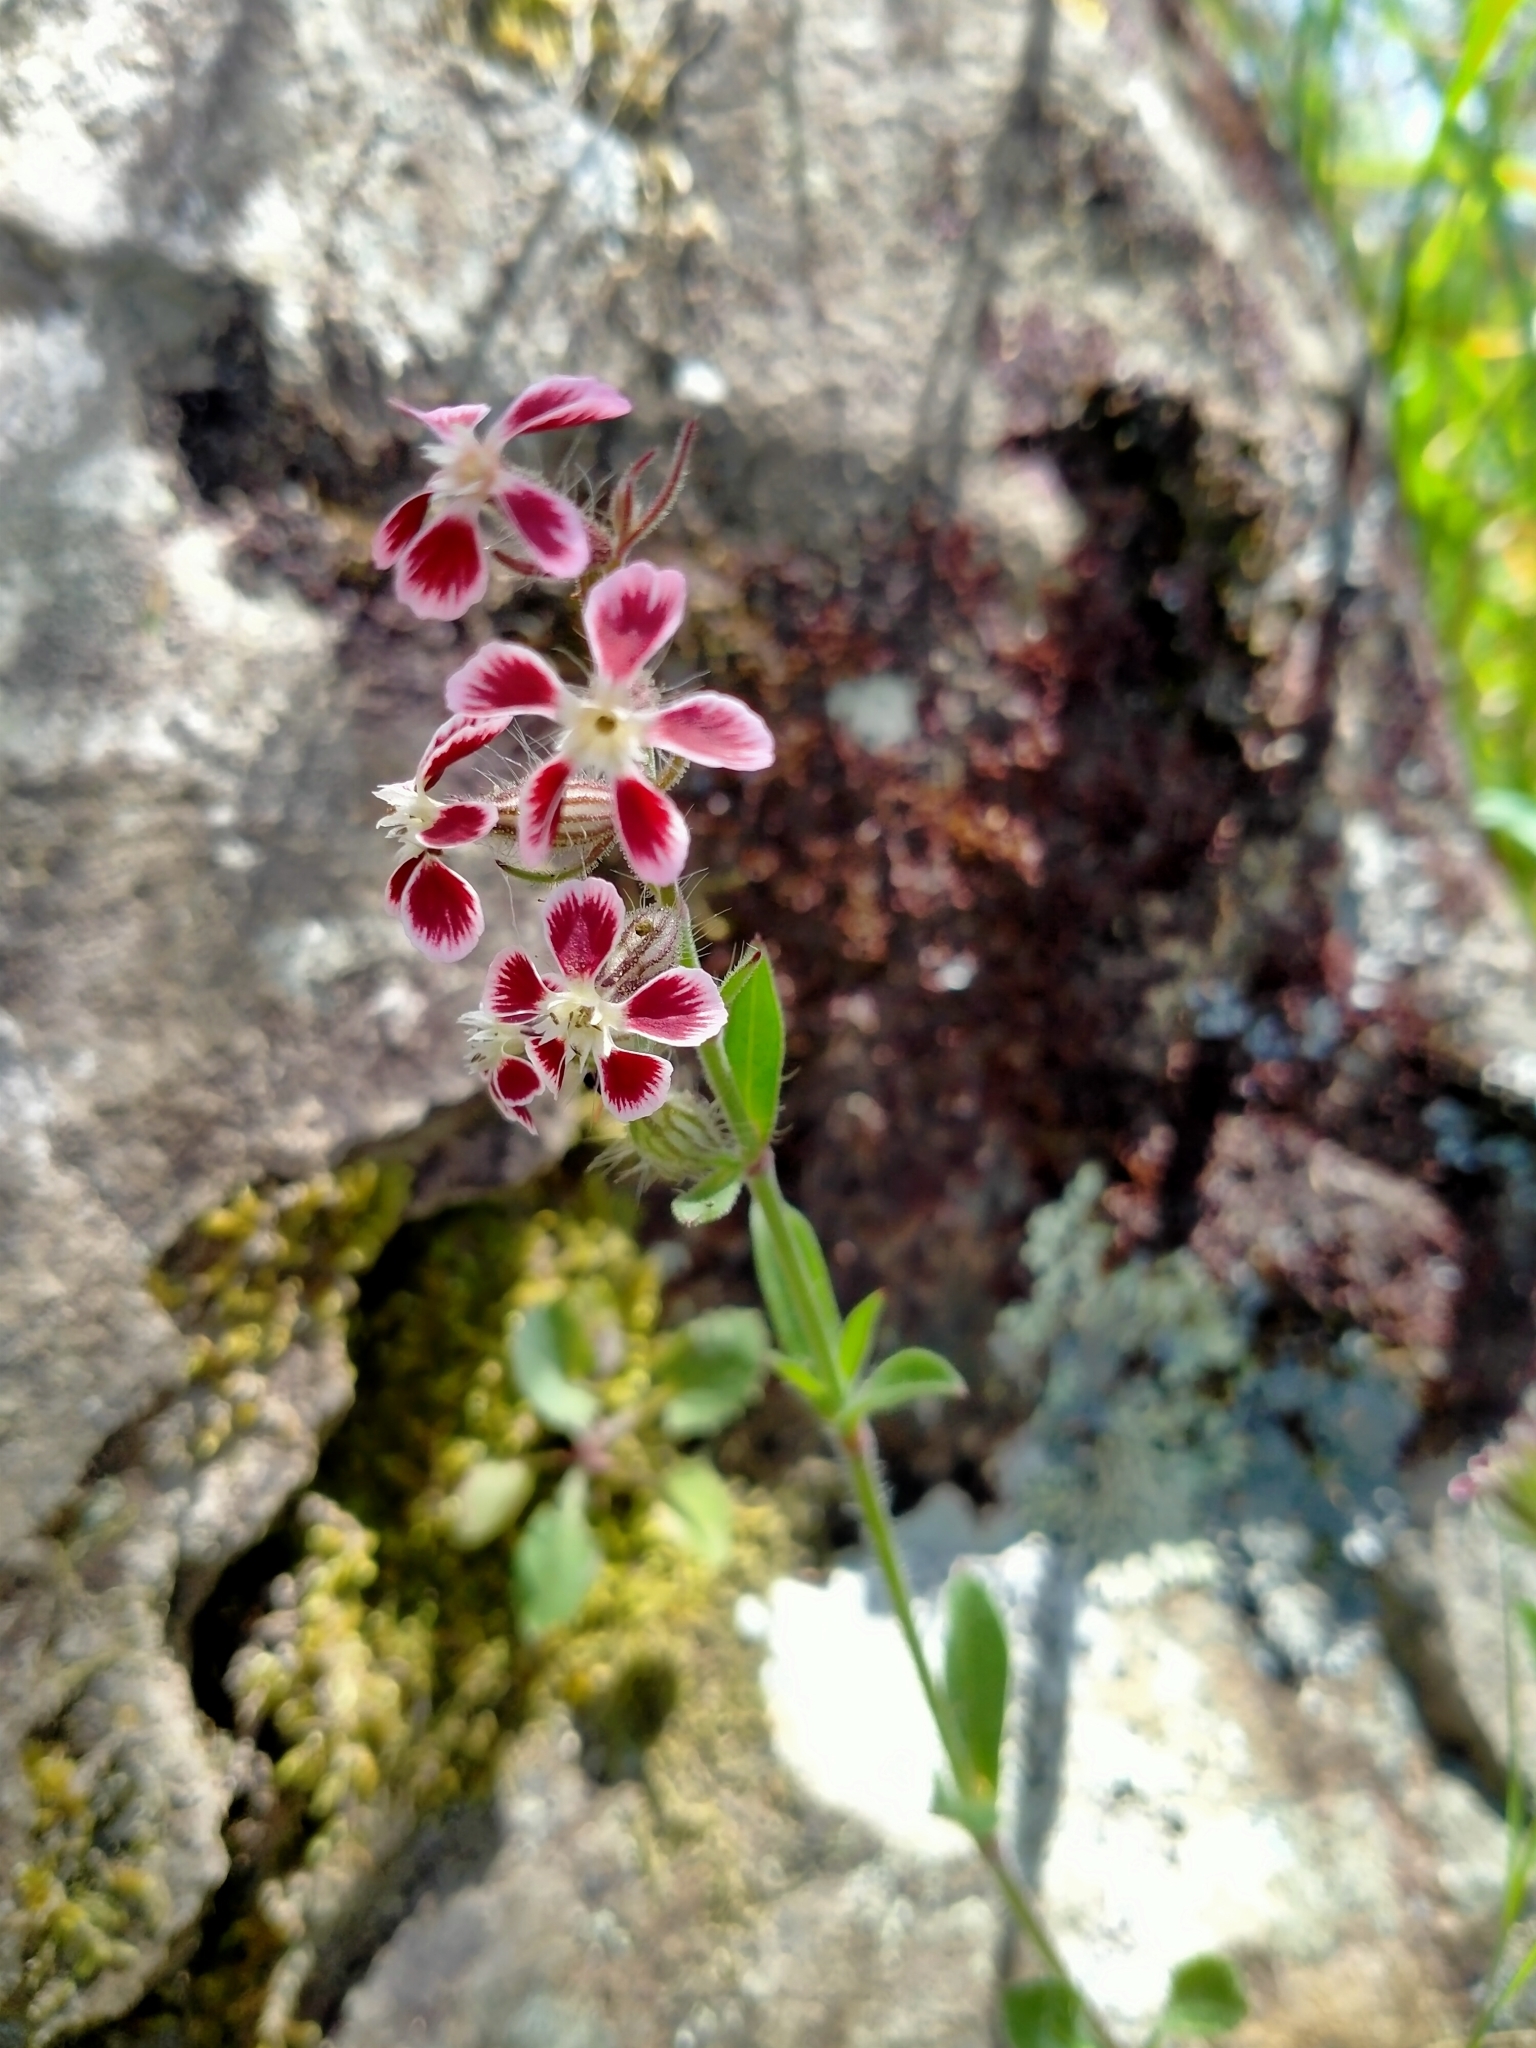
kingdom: Plantae
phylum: Tracheophyta
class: Magnoliopsida
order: Caryophyllales
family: Caryophyllaceae
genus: Silene
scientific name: Silene gallica
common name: Small-flowered catchfly
